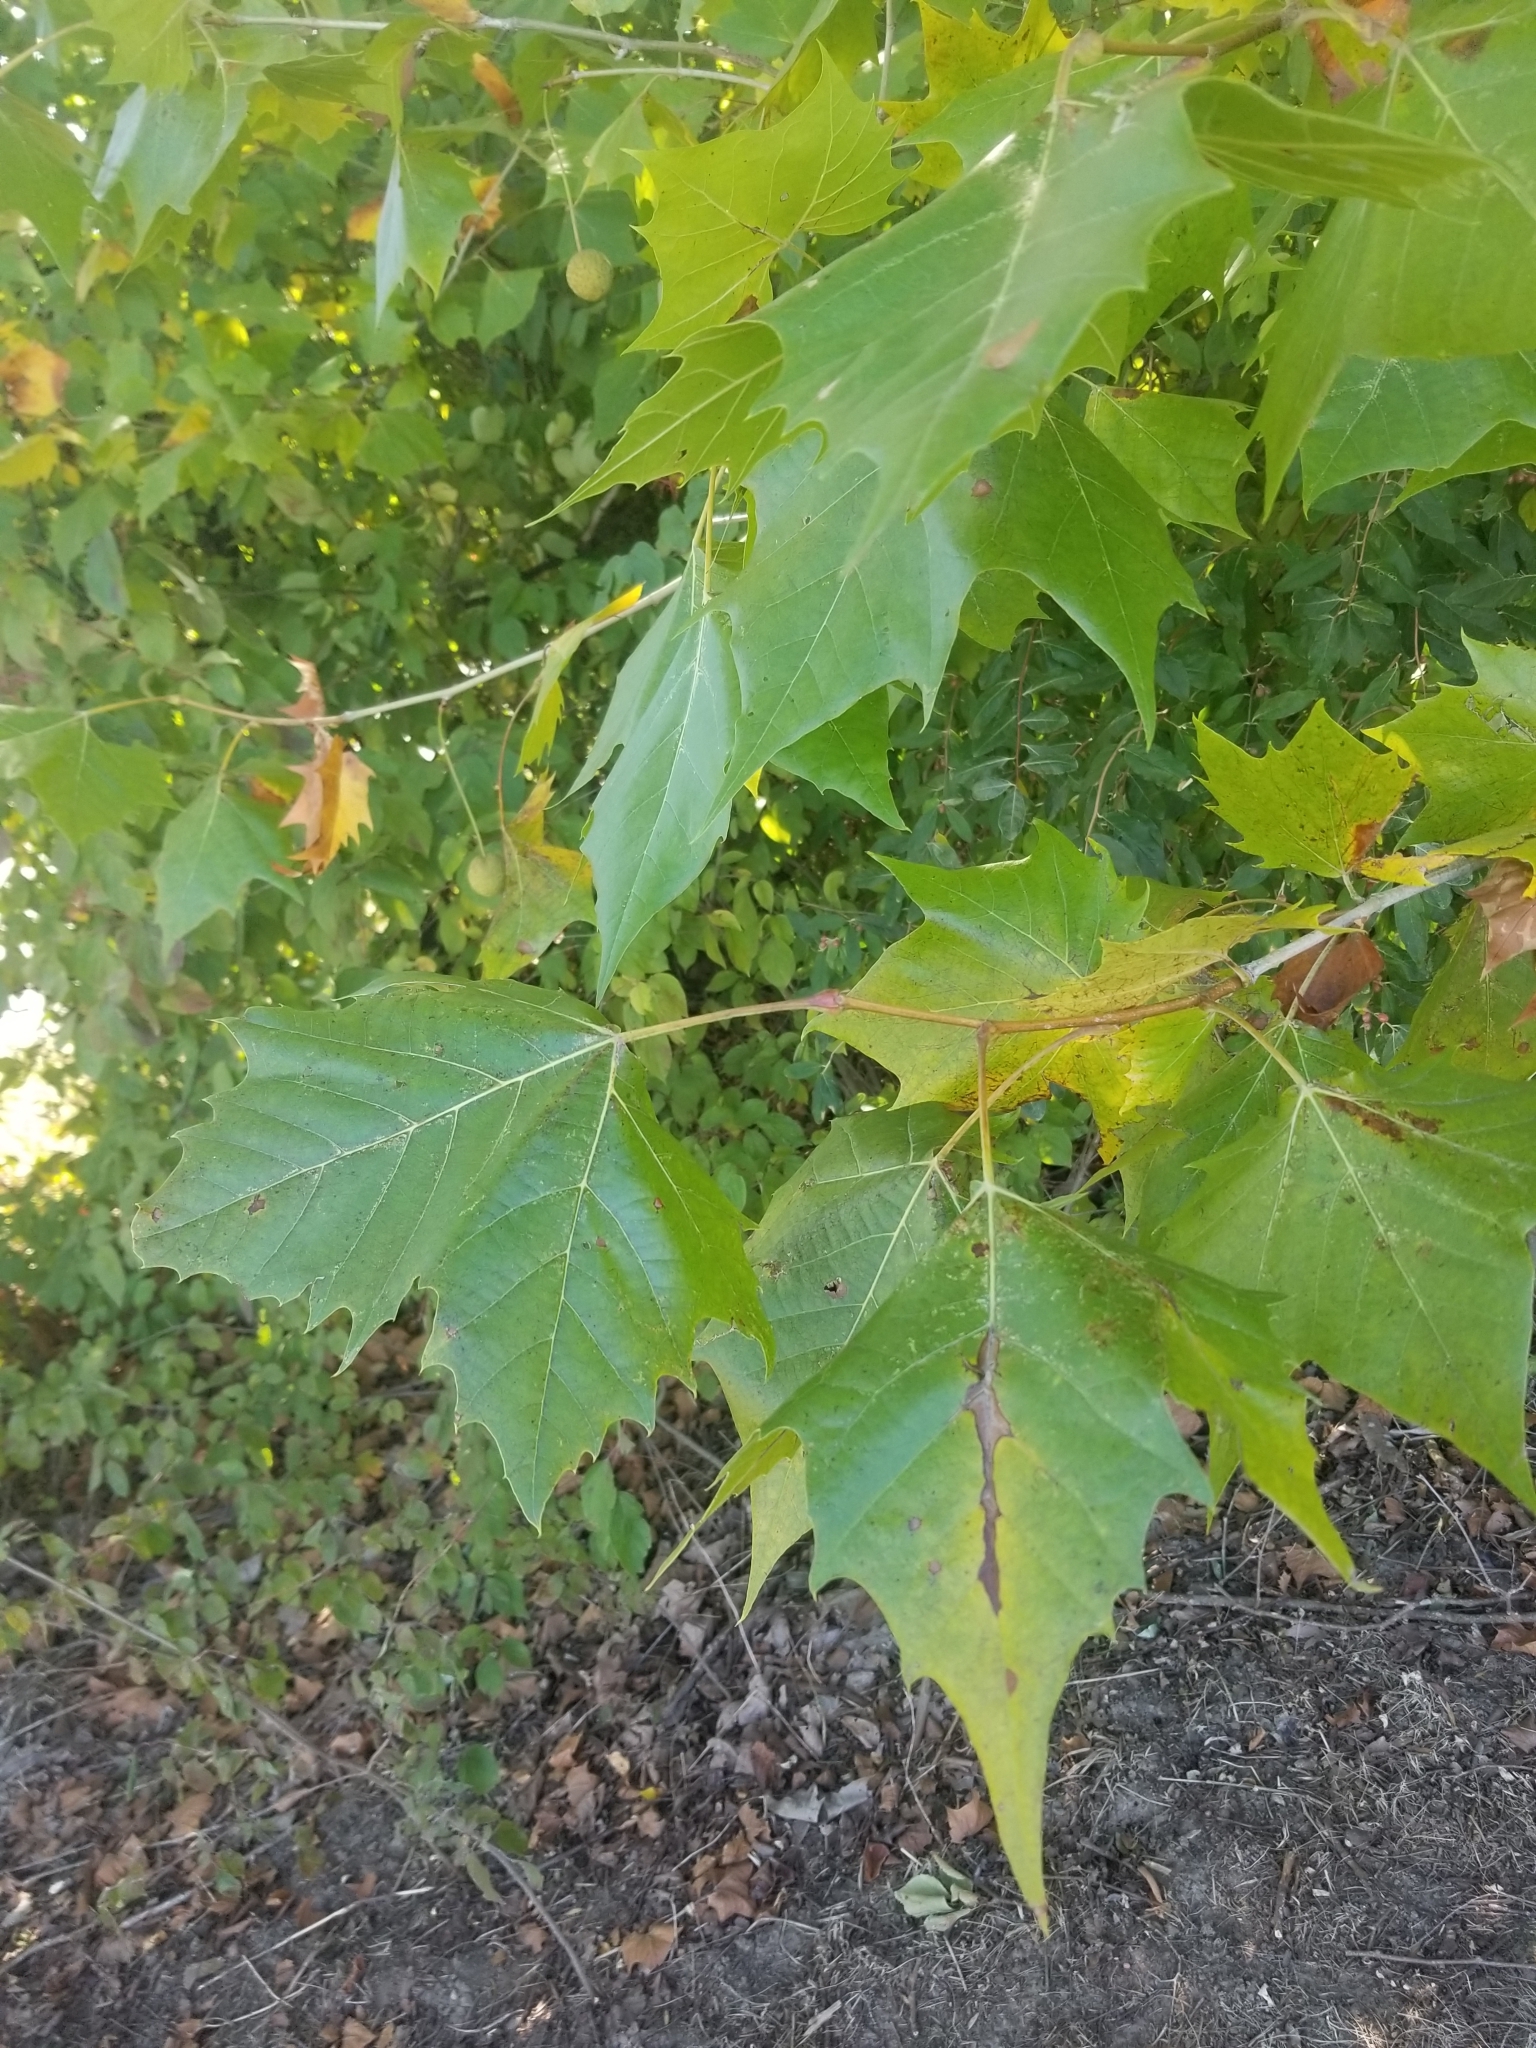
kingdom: Plantae
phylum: Tracheophyta
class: Magnoliopsida
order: Proteales
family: Platanaceae
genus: Platanus
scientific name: Platanus occidentalis
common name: American sycamore
